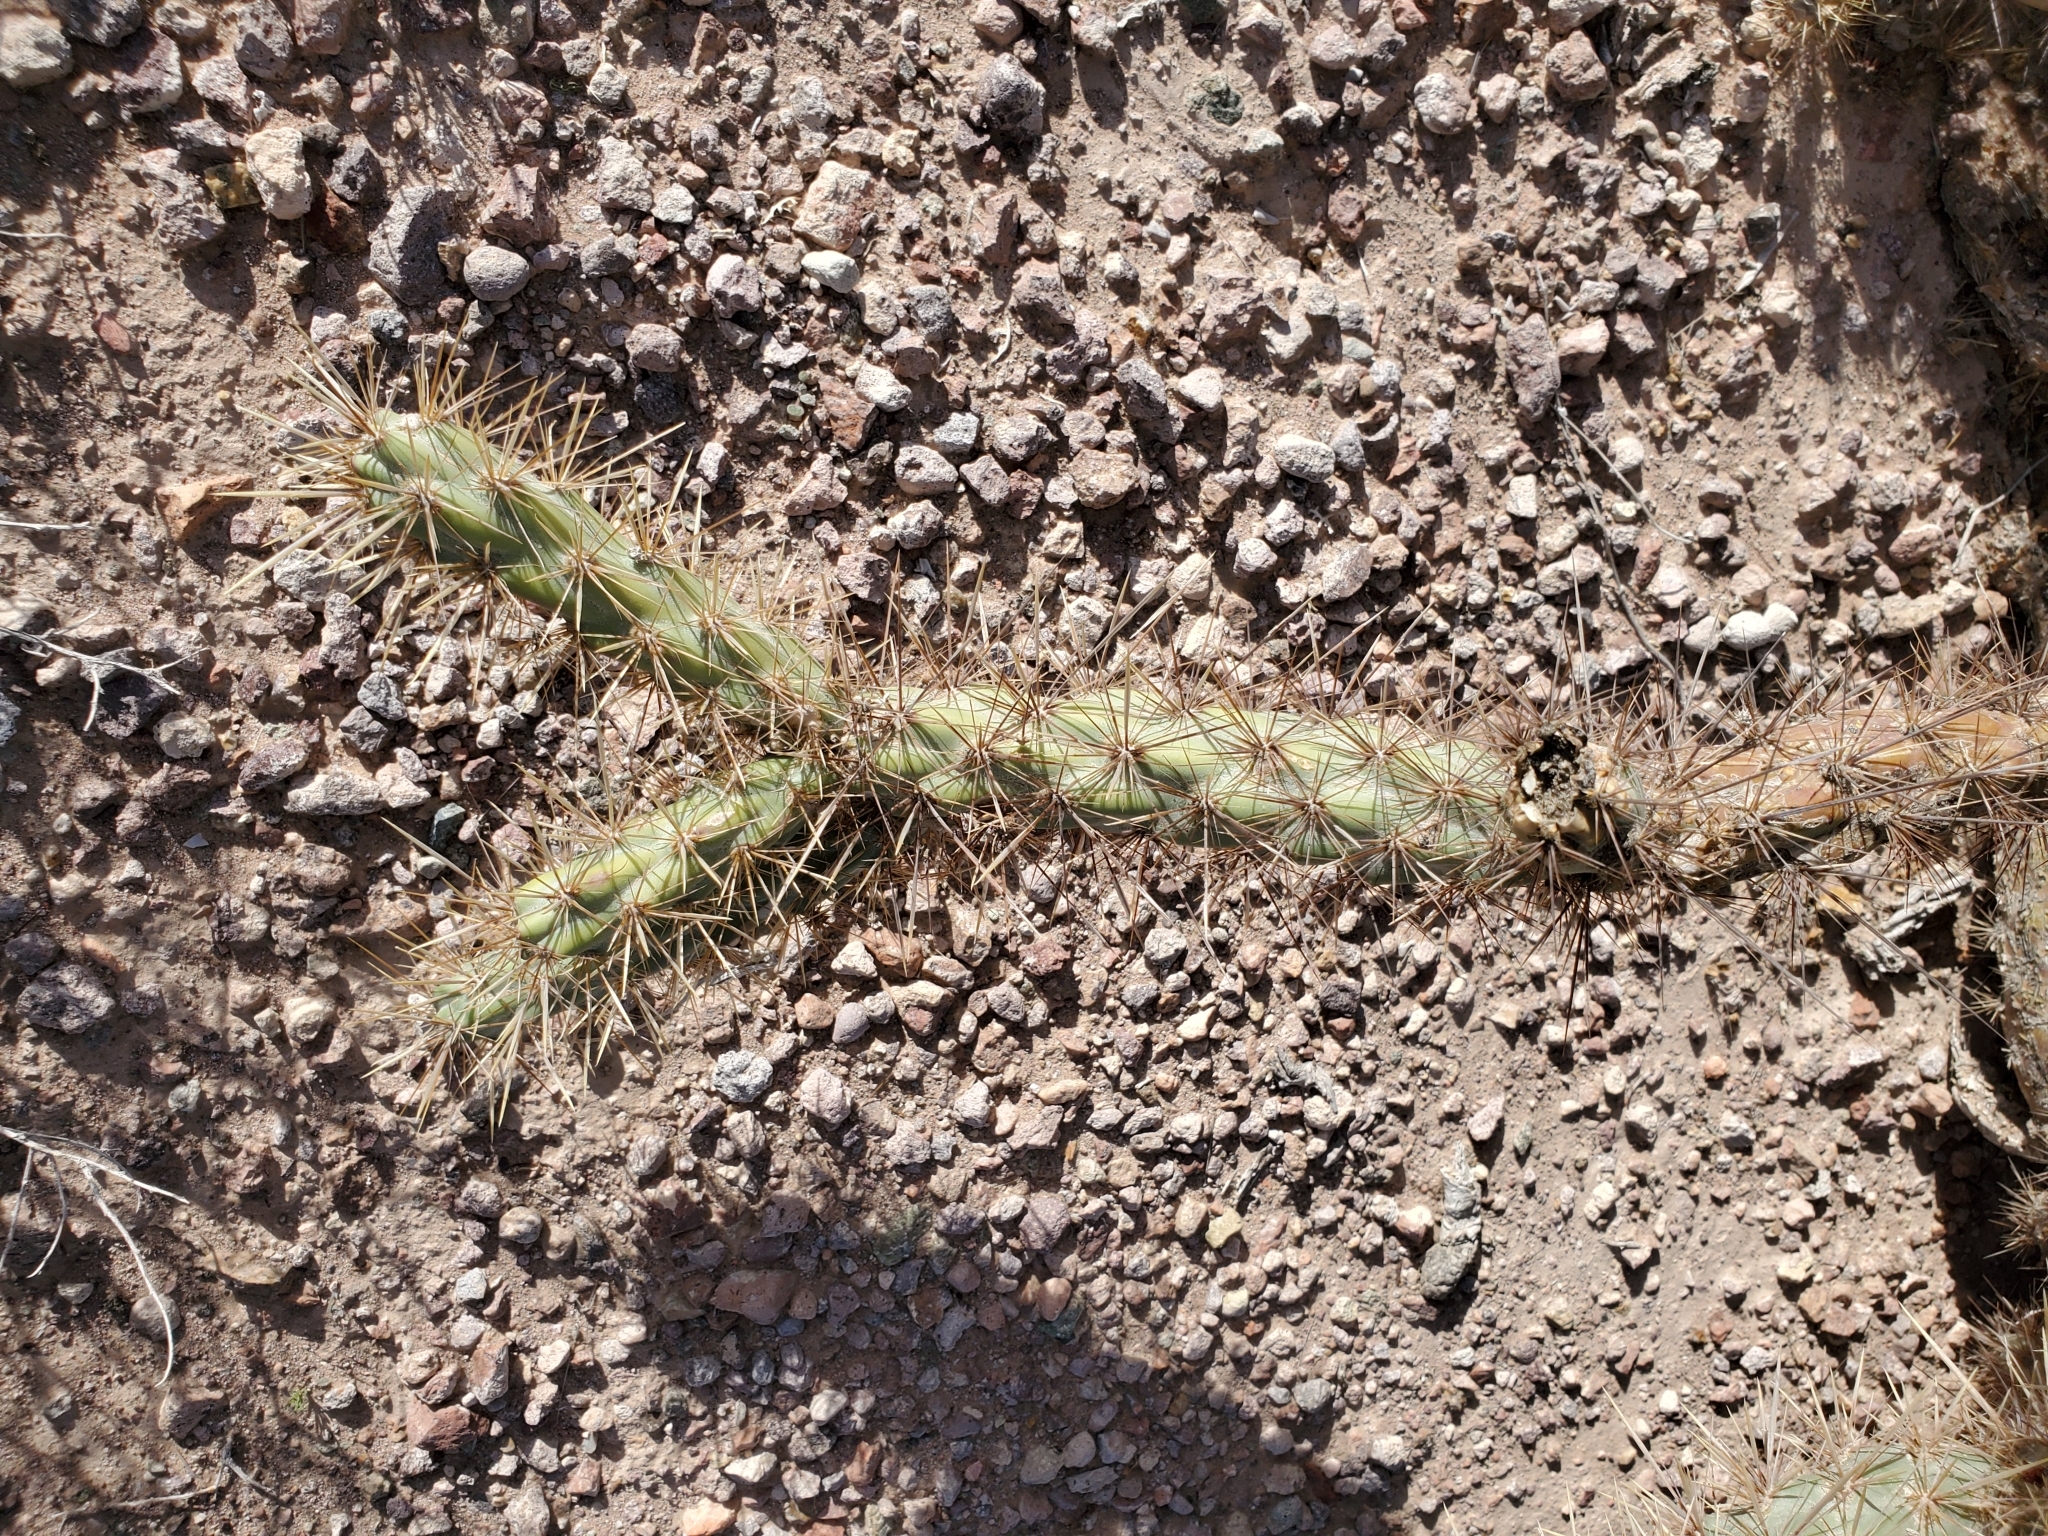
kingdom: Plantae
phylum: Tracheophyta
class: Magnoliopsida
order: Caryophyllales
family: Cactaceae
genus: Cylindropuntia
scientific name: Cylindropuntia acanthocarpa
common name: Buckhorn cholla
